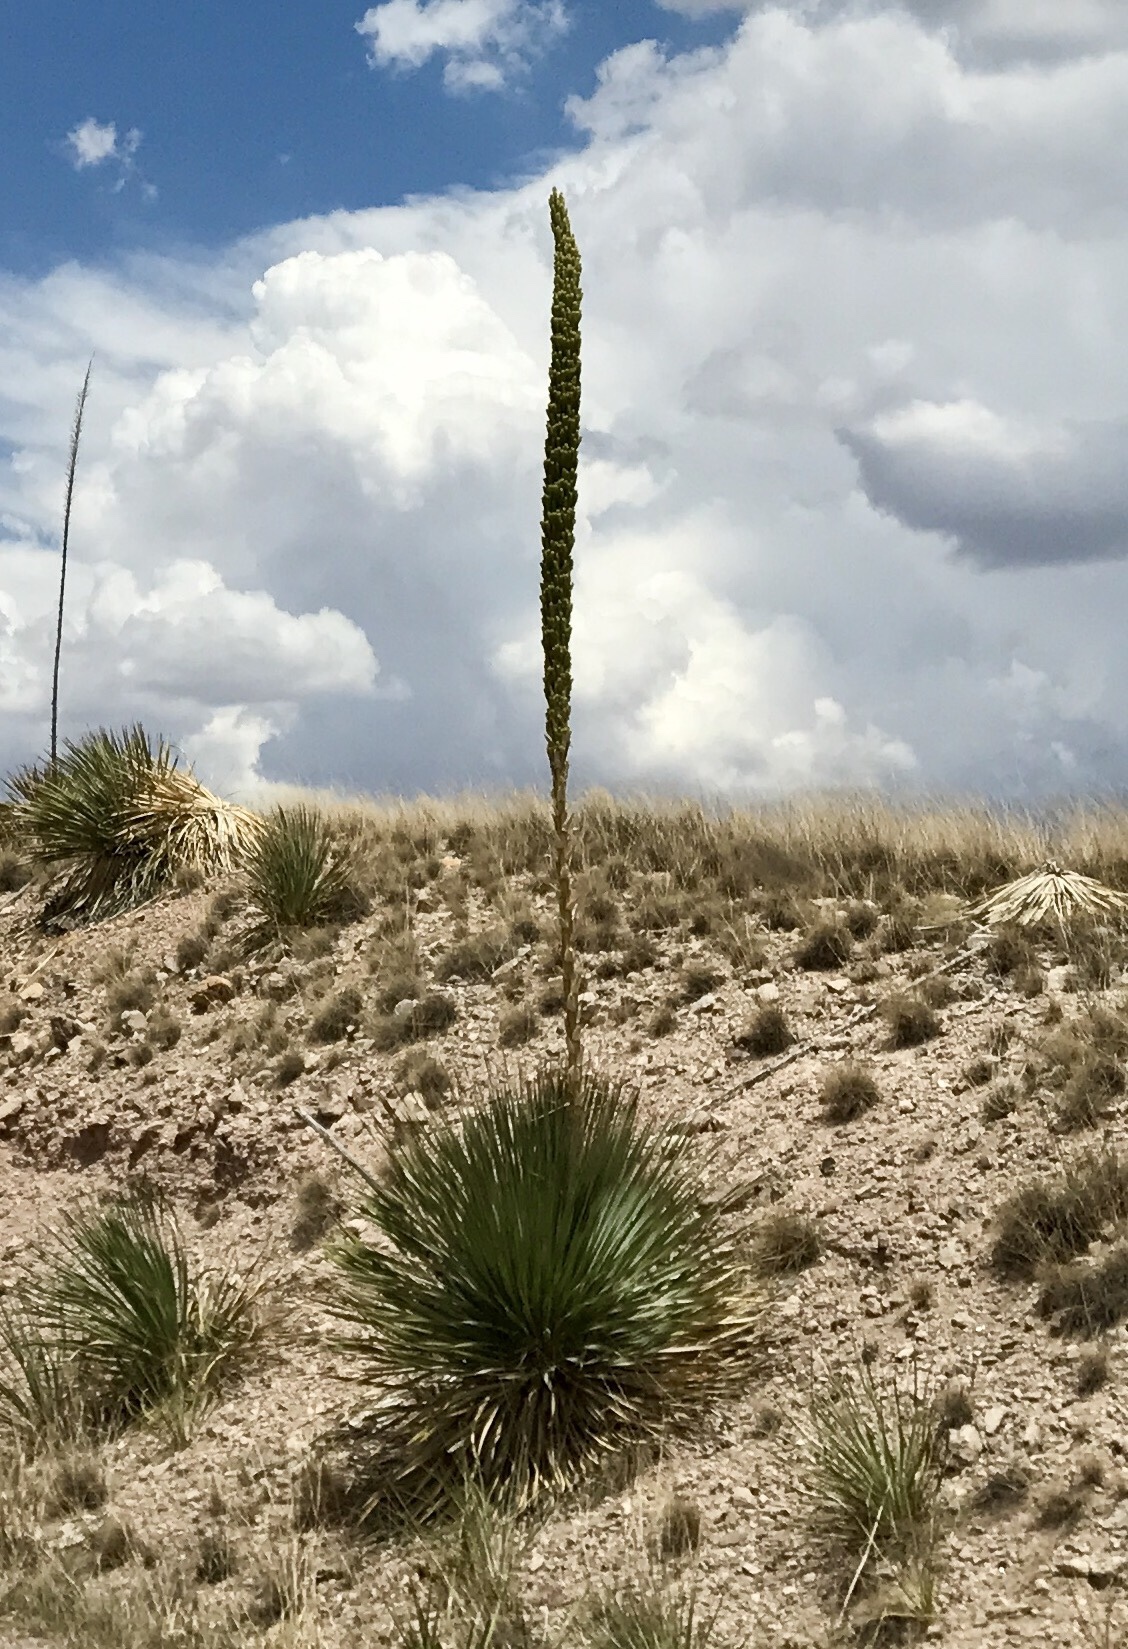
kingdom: Plantae
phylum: Tracheophyta
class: Liliopsida
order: Asparagales
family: Asparagaceae
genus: Dasylirion
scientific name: Dasylirion wheeleri
